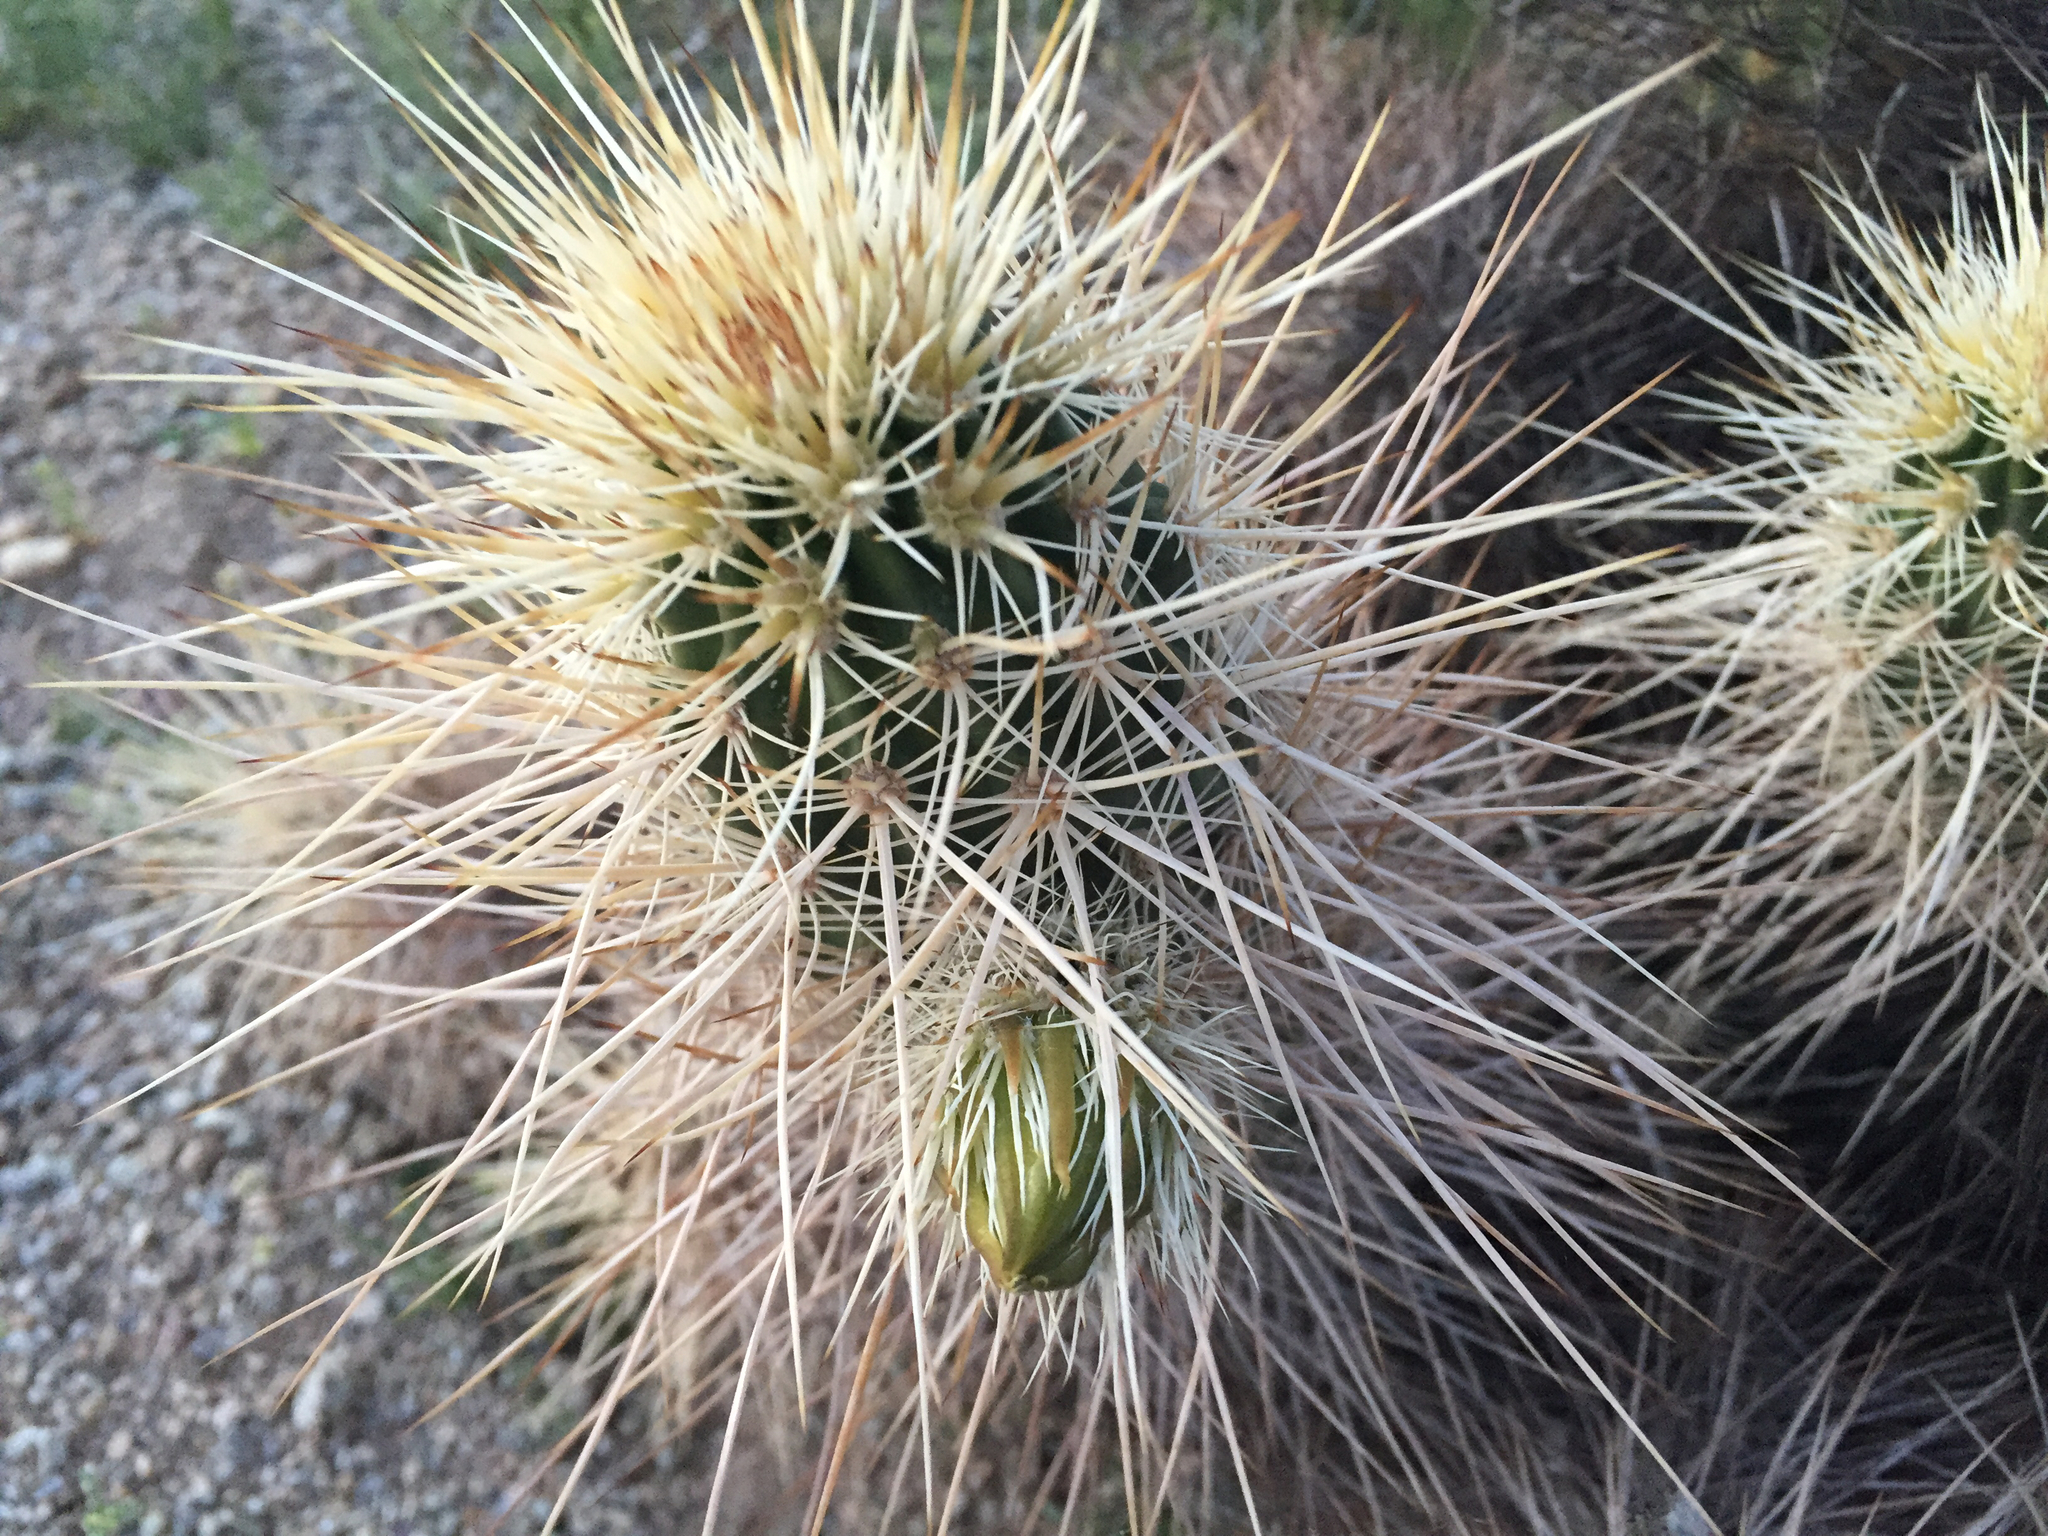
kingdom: Plantae
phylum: Tracheophyta
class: Magnoliopsida
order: Caryophyllales
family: Cactaceae
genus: Echinocereus
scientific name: Echinocereus engelmannii
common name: Engelmann's hedgehog cactus
